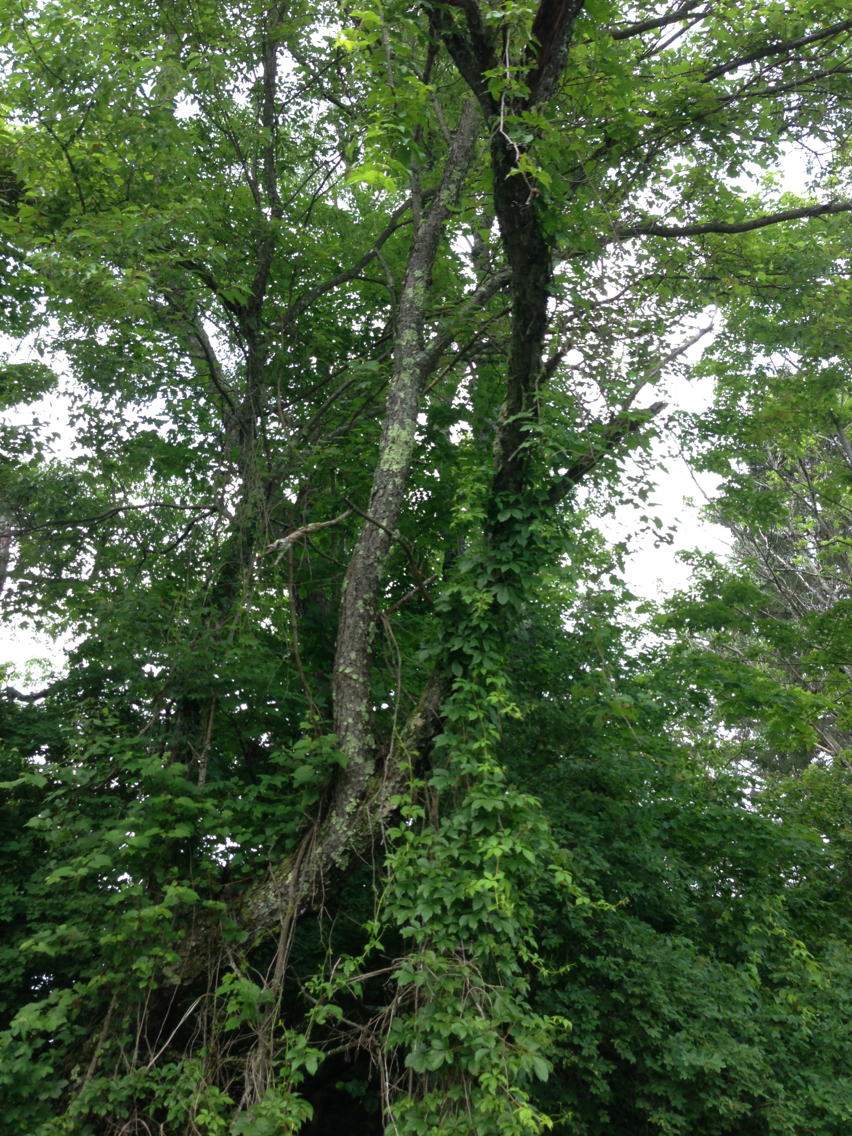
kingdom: Plantae
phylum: Tracheophyta
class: Magnoliopsida
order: Rosales
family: Rosaceae
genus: Prunus
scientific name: Prunus serotina
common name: Black cherry
